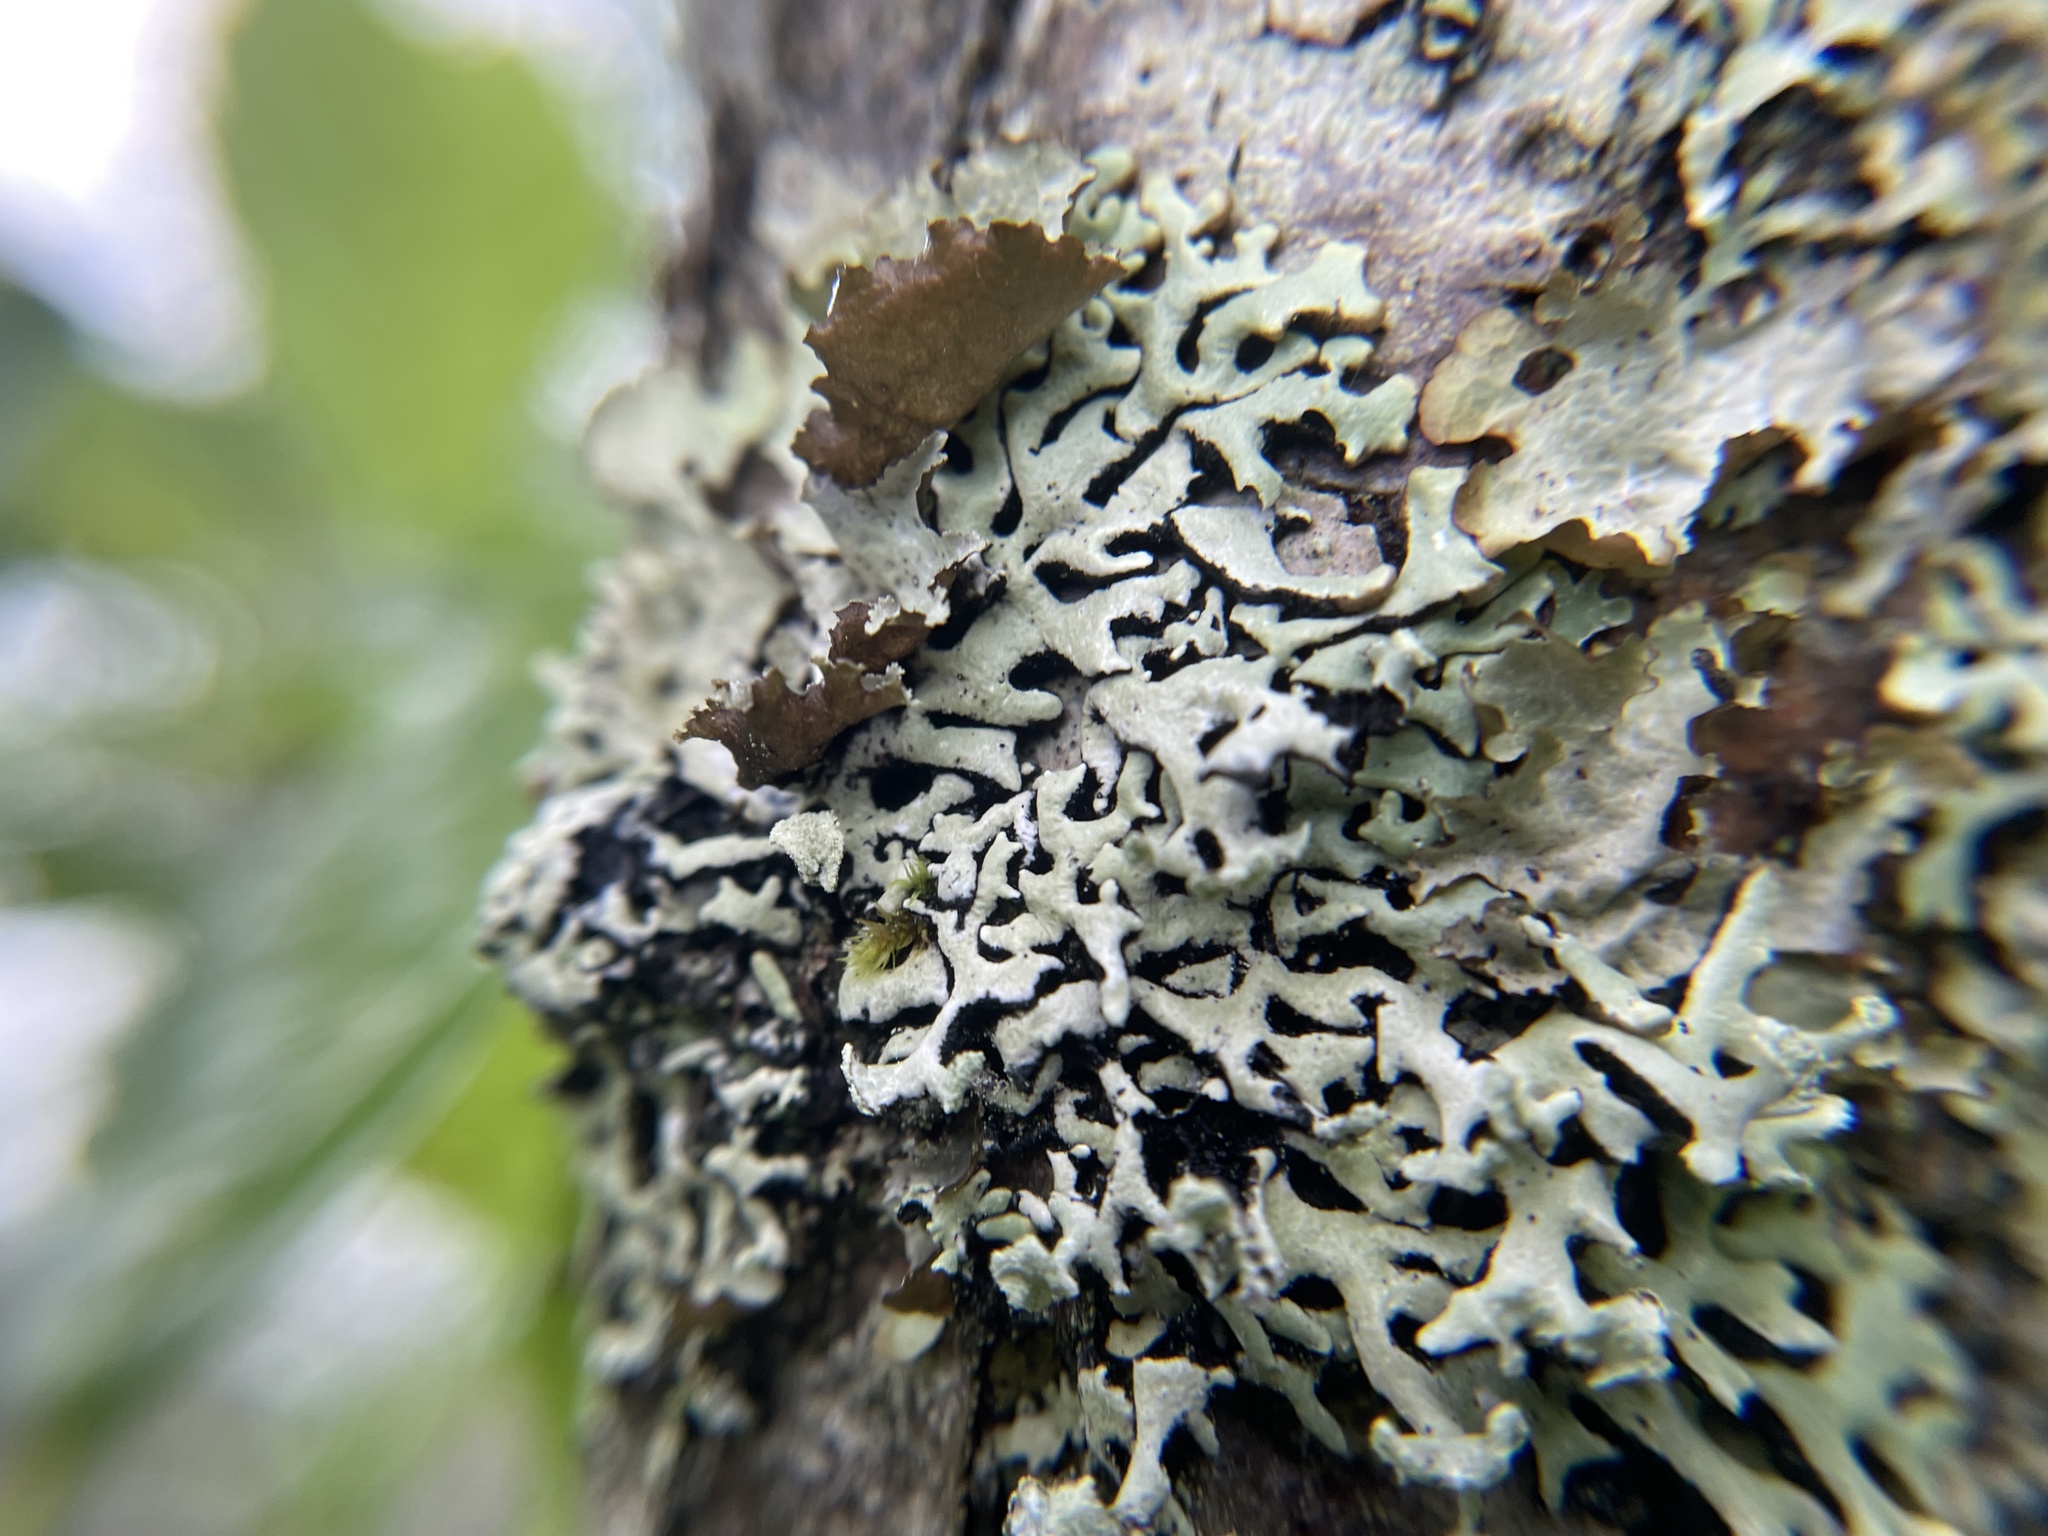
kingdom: Fungi
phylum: Ascomycota
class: Lecanoromycetes
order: Lecanorales
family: Parmeliaceae
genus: Hypogymnia
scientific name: Hypogymnia physodes
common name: Dark crottle
